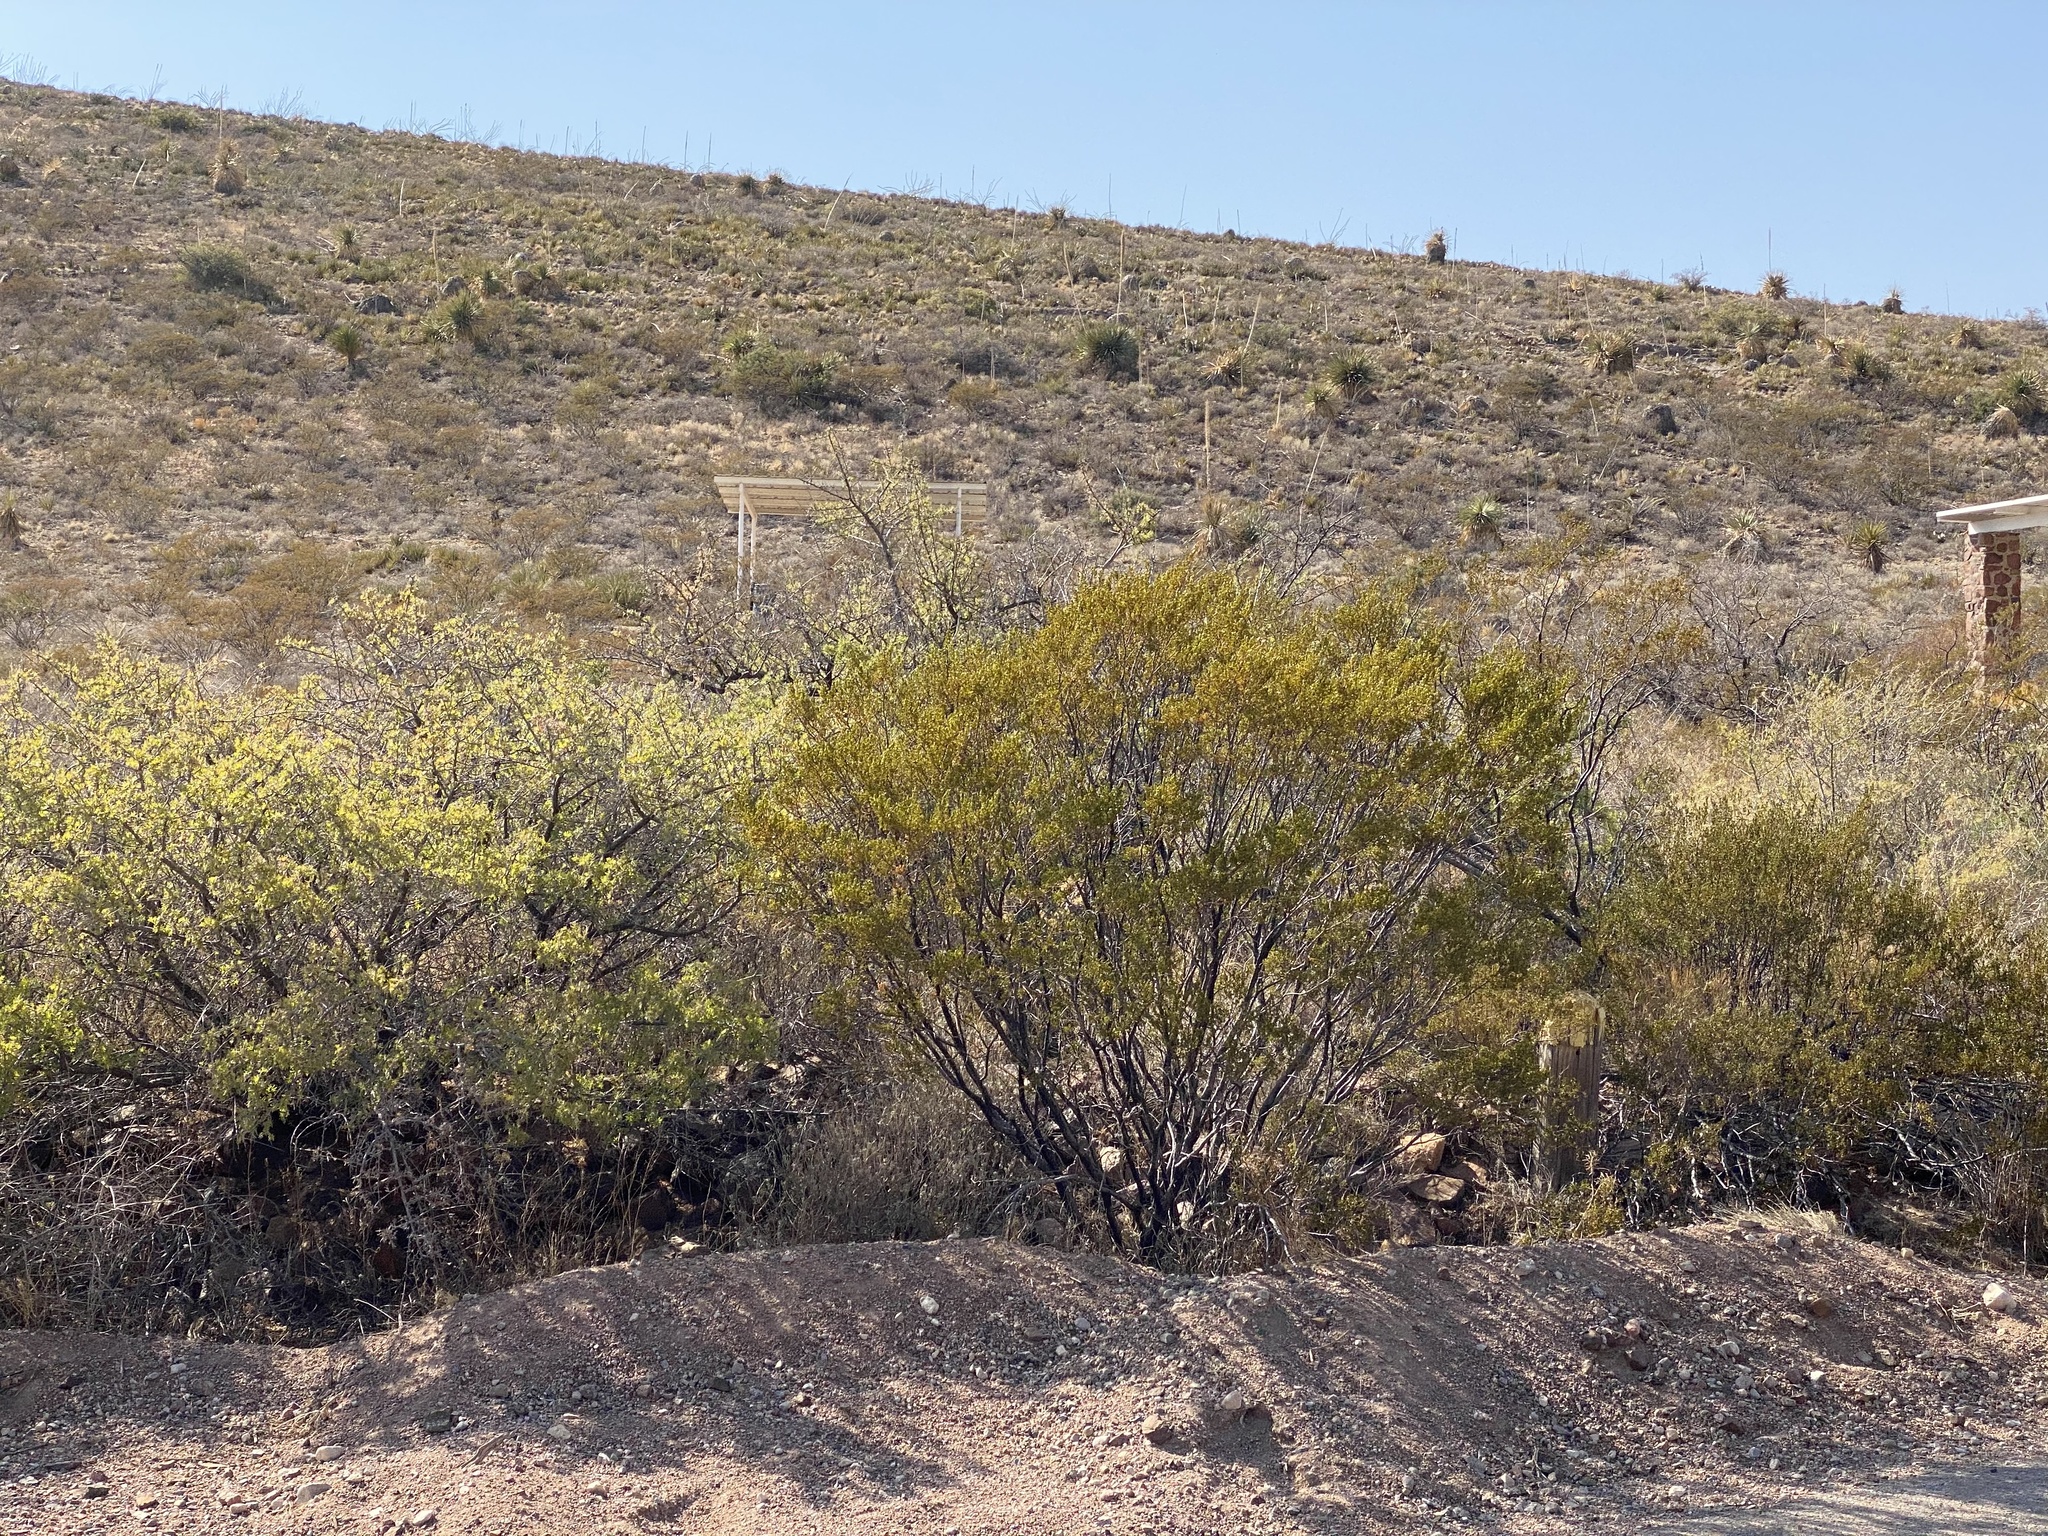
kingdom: Plantae
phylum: Tracheophyta
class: Magnoliopsida
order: Zygophyllales
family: Zygophyllaceae
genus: Larrea
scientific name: Larrea tridentata
